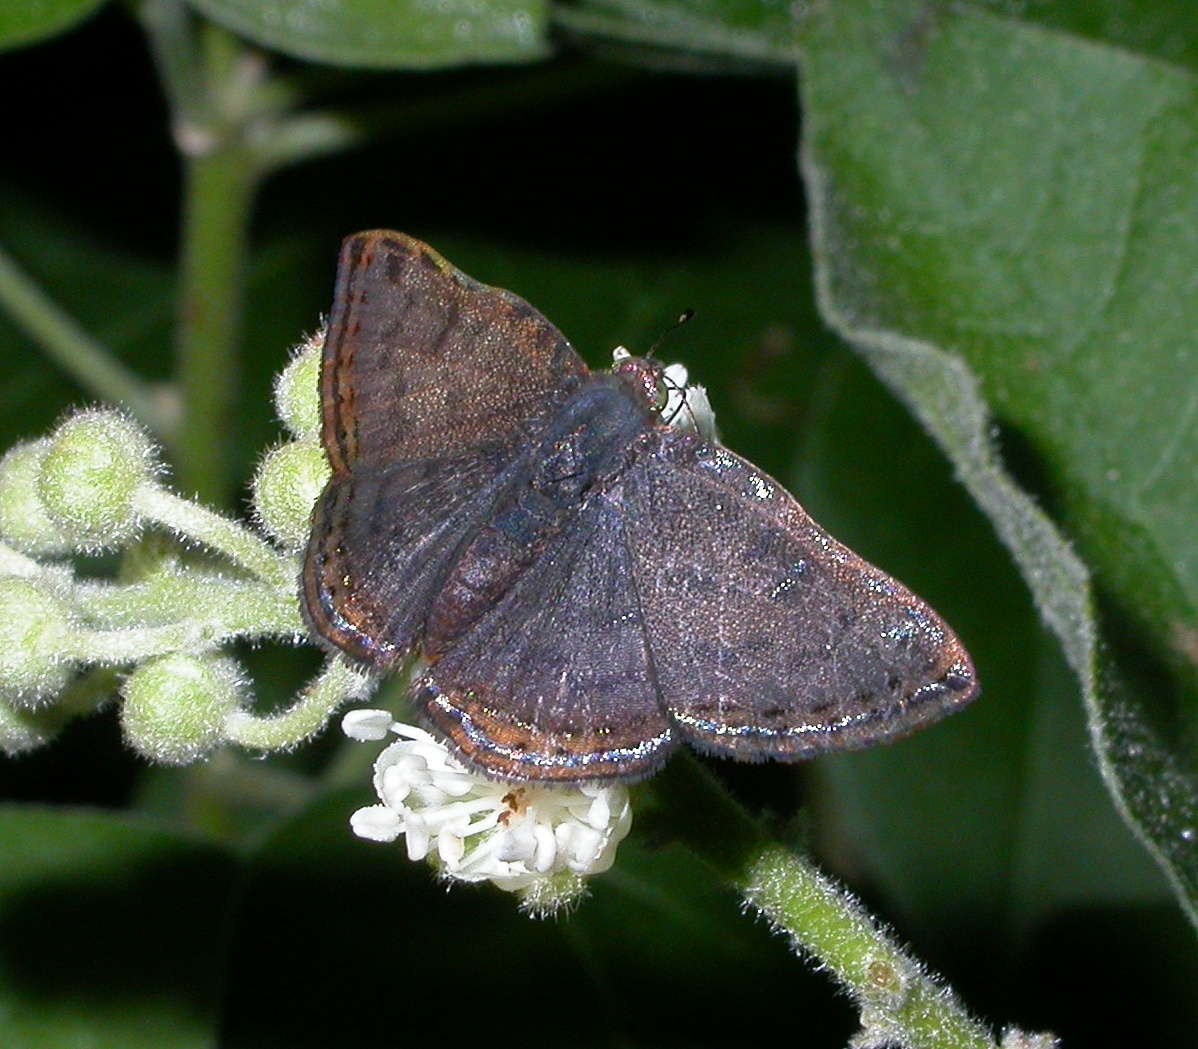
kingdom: Animalia
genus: Caria
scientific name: Caria ino
